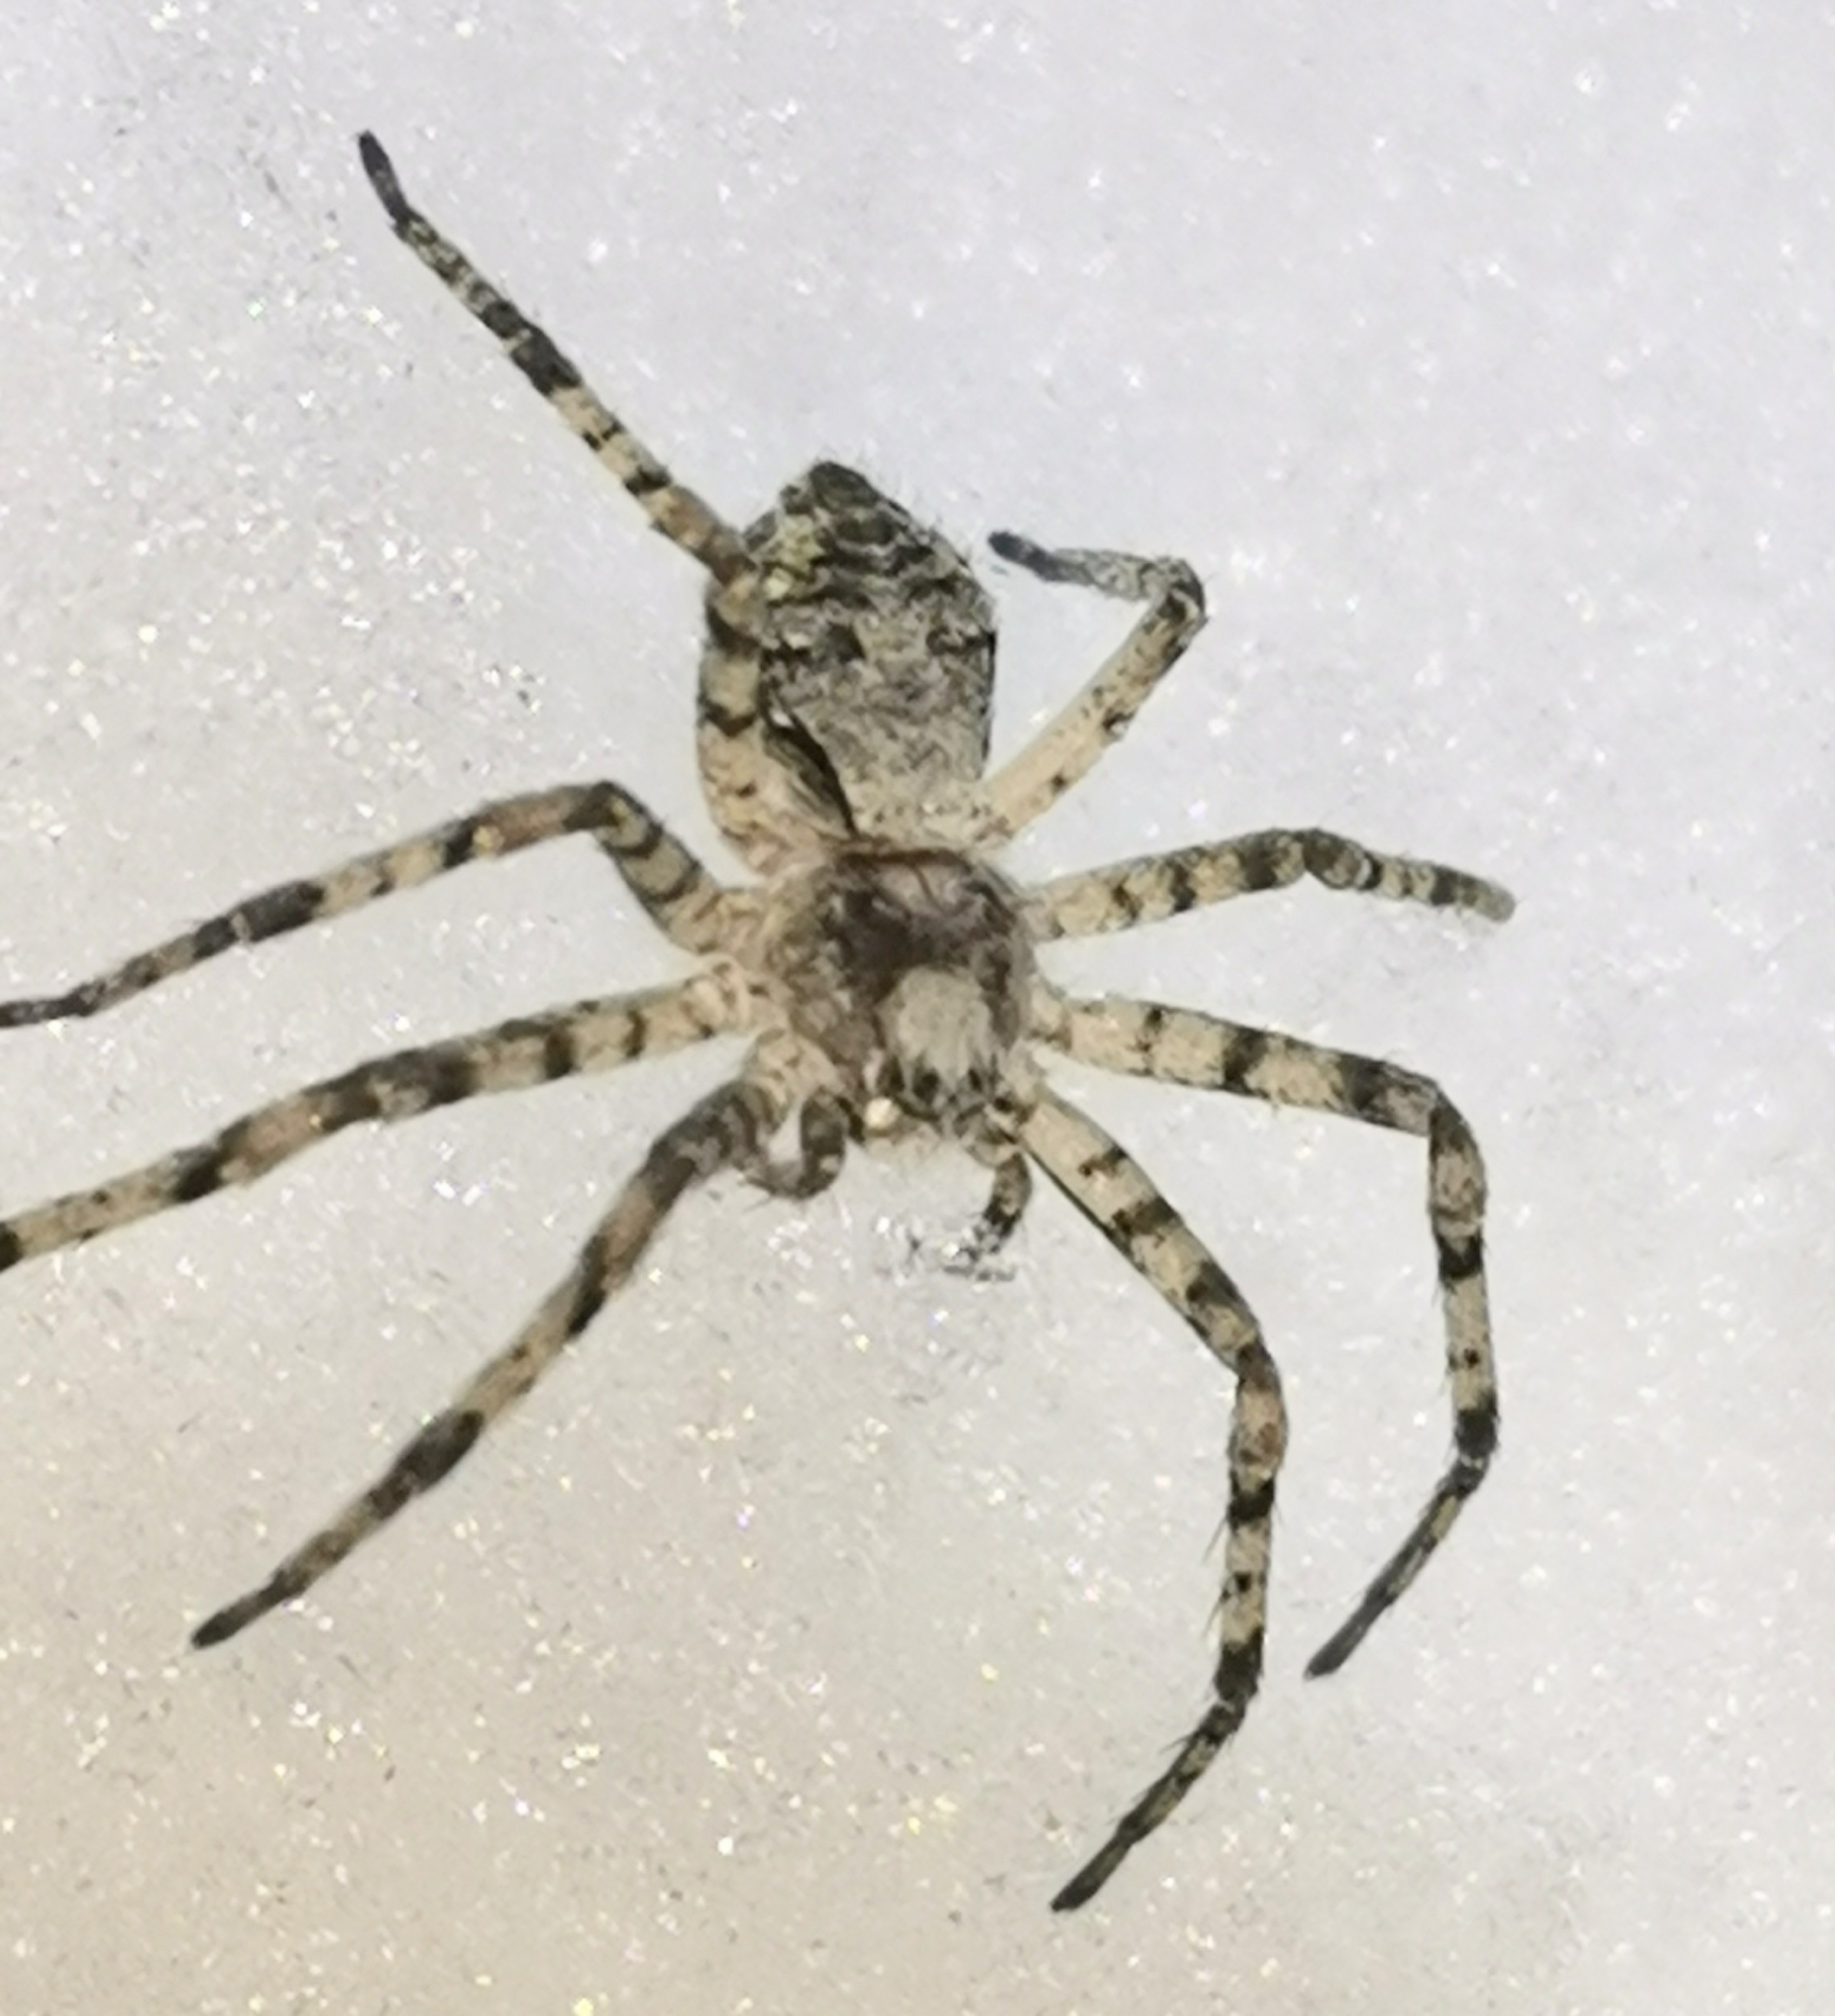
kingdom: Animalia
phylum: Arthropoda
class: Arachnida
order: Araneae
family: Philodromidae
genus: Philodromus
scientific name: Philodromus margaritatus
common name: Lichen running-spider
